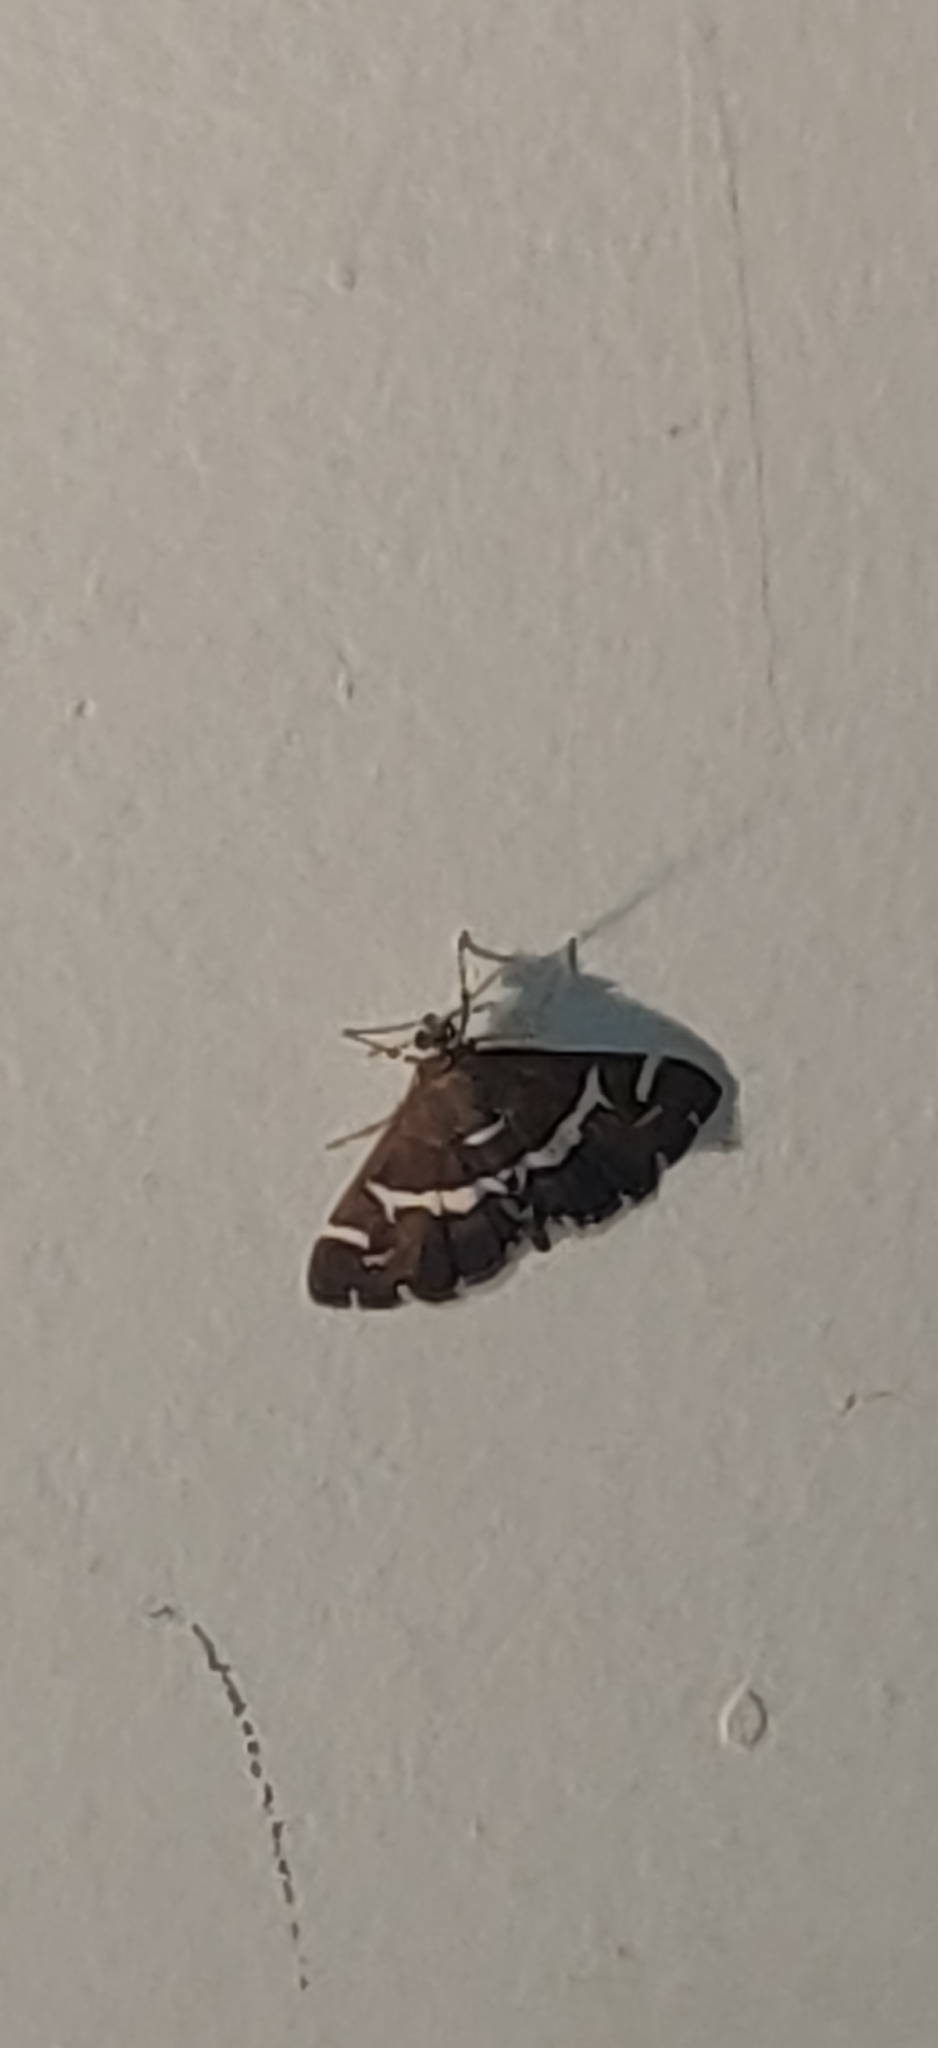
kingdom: Animalia
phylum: Arthropoda
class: Insecta
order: Lepidoptera
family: Crambidae
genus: Spoladea
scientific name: Spoladea recurvalis
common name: Beet webworm moth
